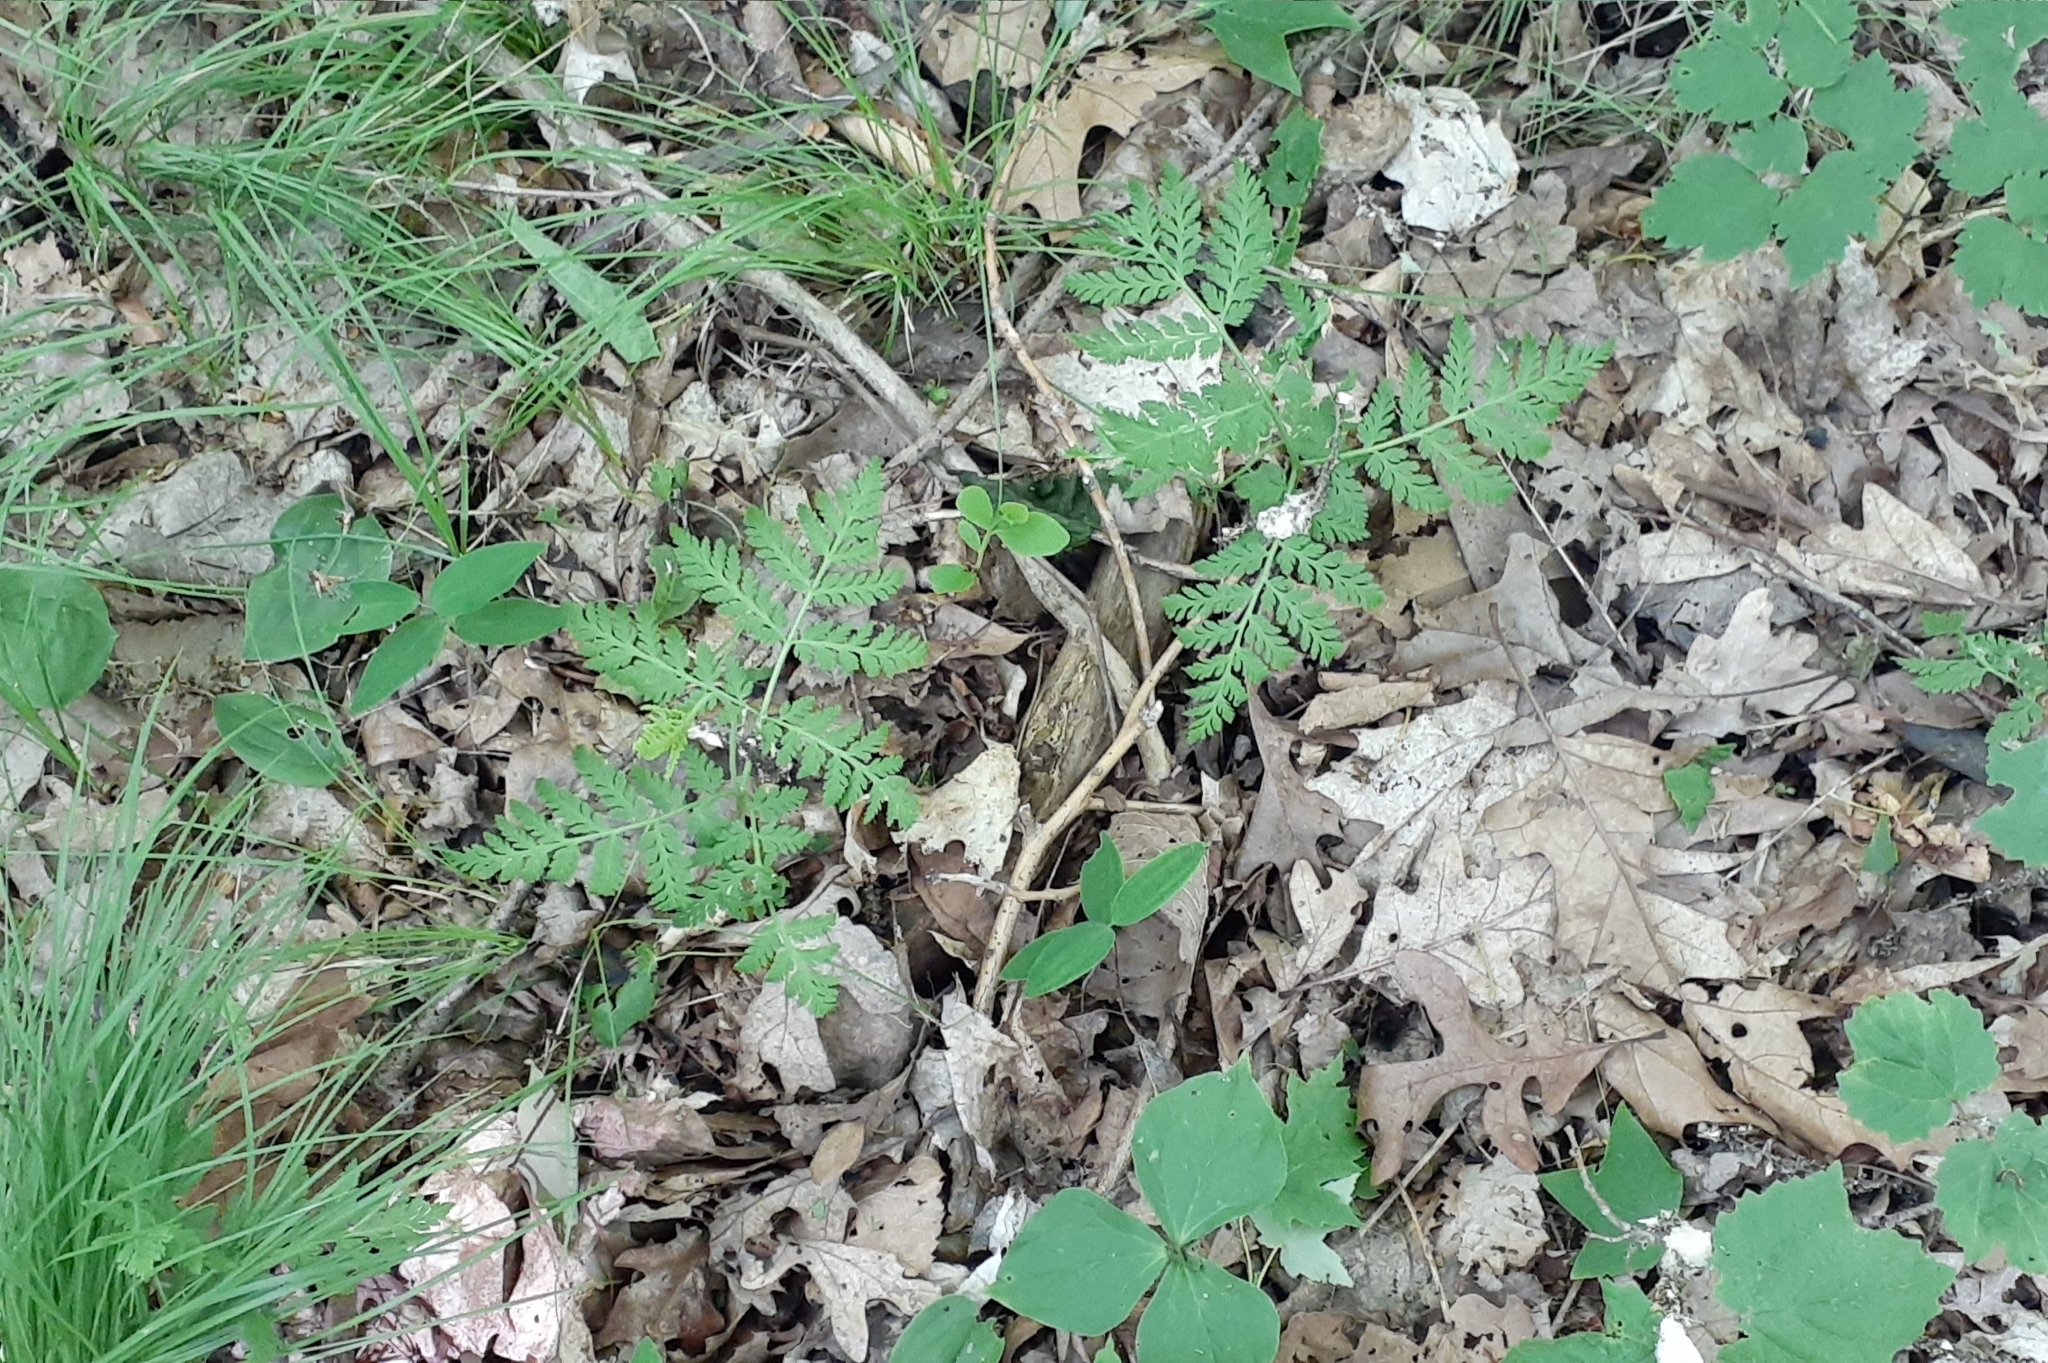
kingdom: Plantae
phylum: Tracheophyta
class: Polypodiopsida
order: Ophioglossales
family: Ophioglossaceae
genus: Botrypus
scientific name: Botrypus virginianus
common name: Common grapefern
